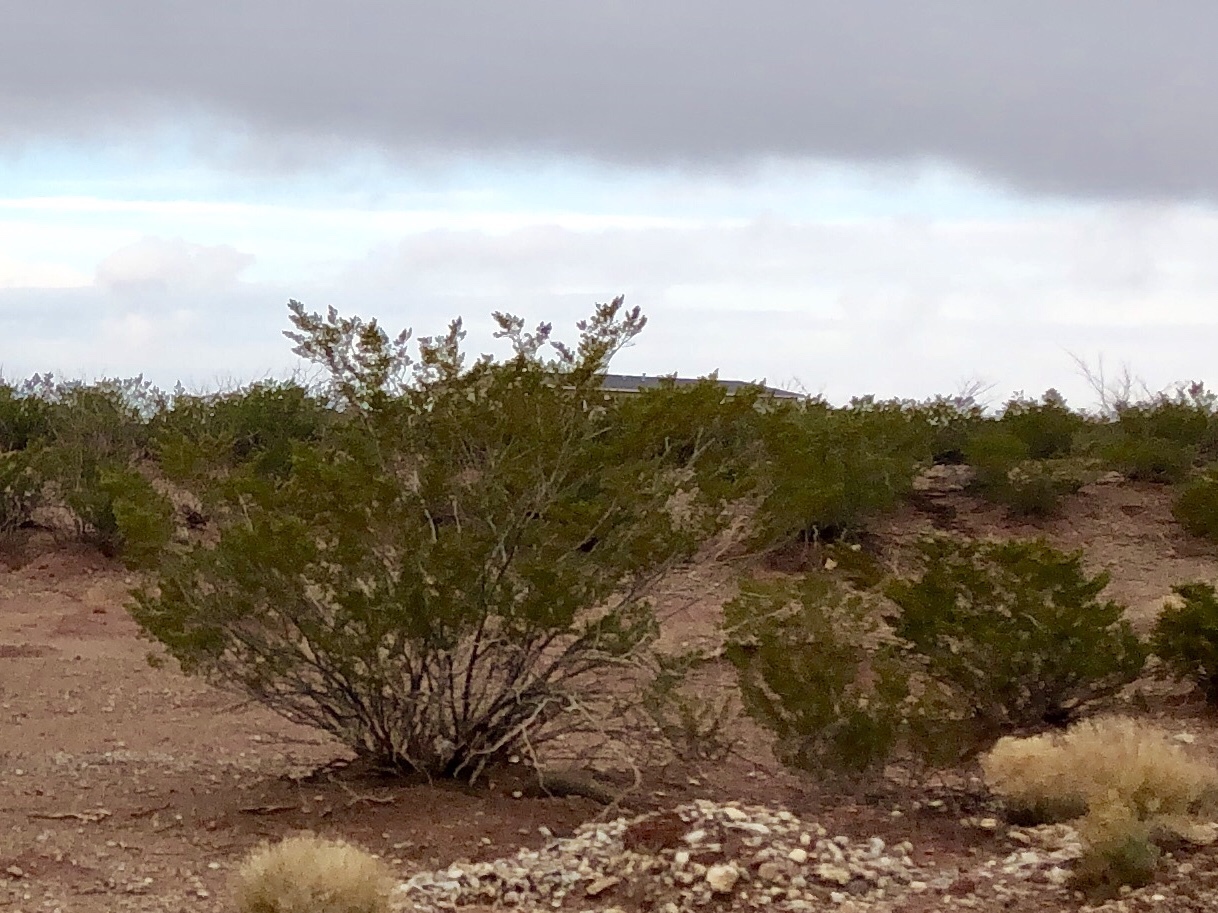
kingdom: Plantae
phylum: Tracheophyta
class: Magnoliopsida
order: Zygophyllales
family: Zygophyllaceae
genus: Larrea
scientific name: Larrea tridentata
